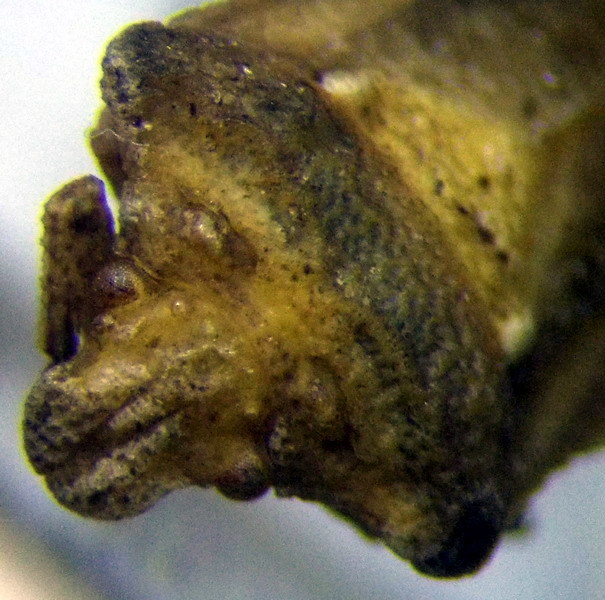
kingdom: Animalia
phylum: Arthropoda
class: Insecta
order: Hemiptera
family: Pentatomidae
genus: Leprosoma
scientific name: Leprosoma inconspicuum
